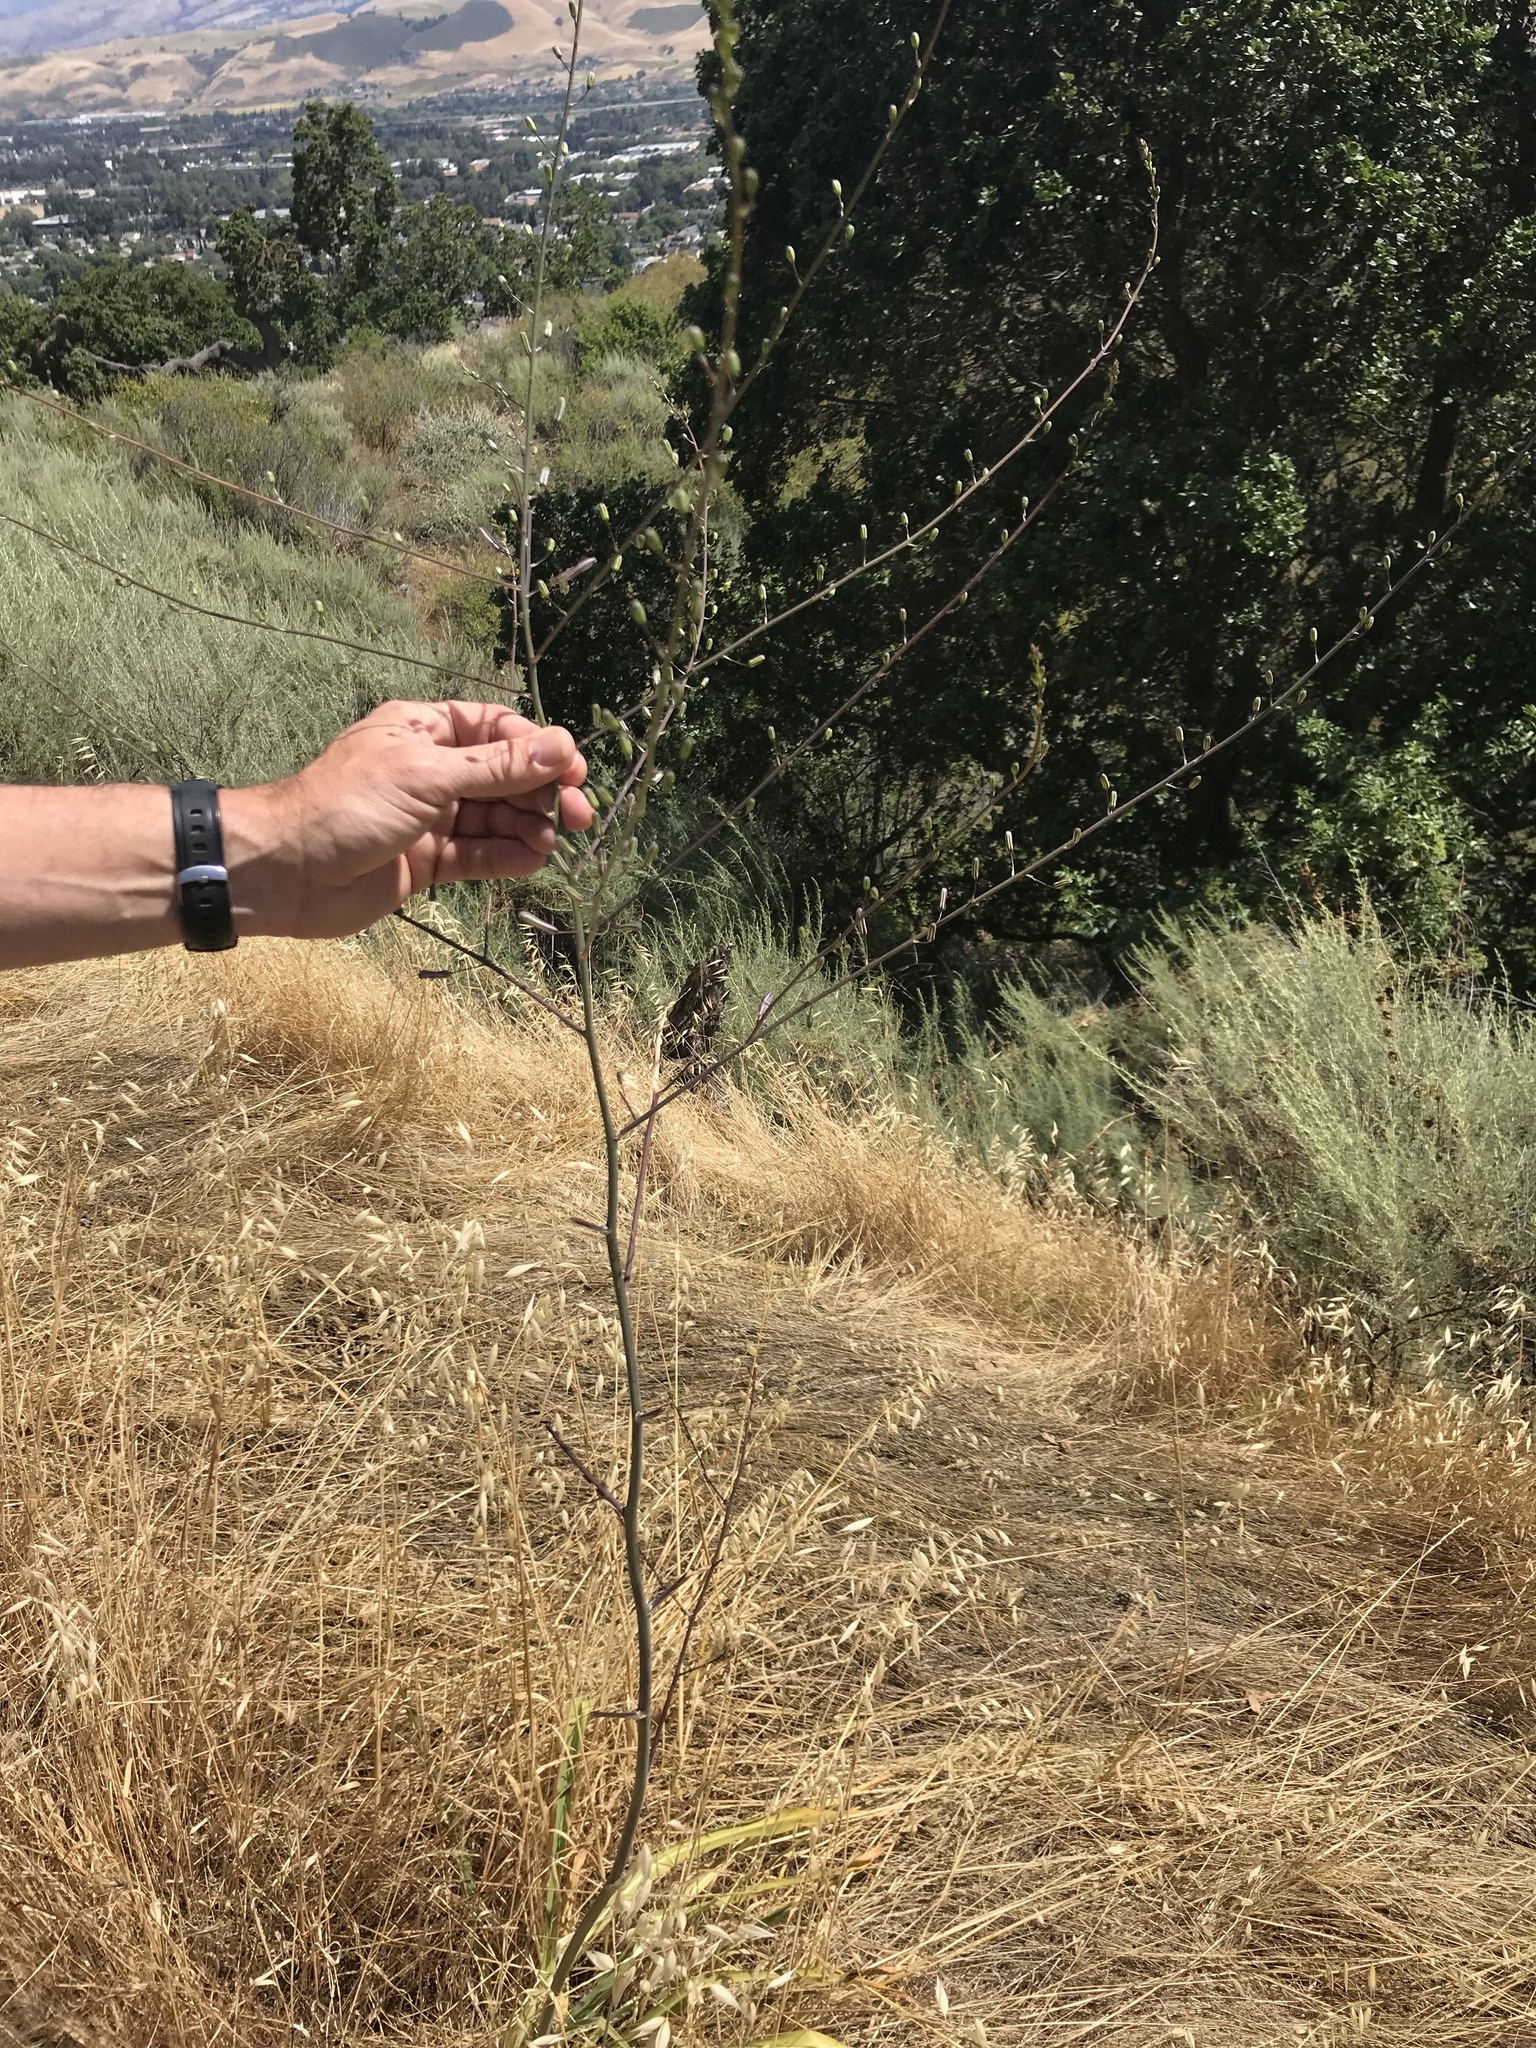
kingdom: Plantae
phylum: Tracheophyta
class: Liliopsida
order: Asparagales
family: Asparagaceae
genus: Chlorogalum
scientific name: Chlorogalum pomeridianum
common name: Amole
